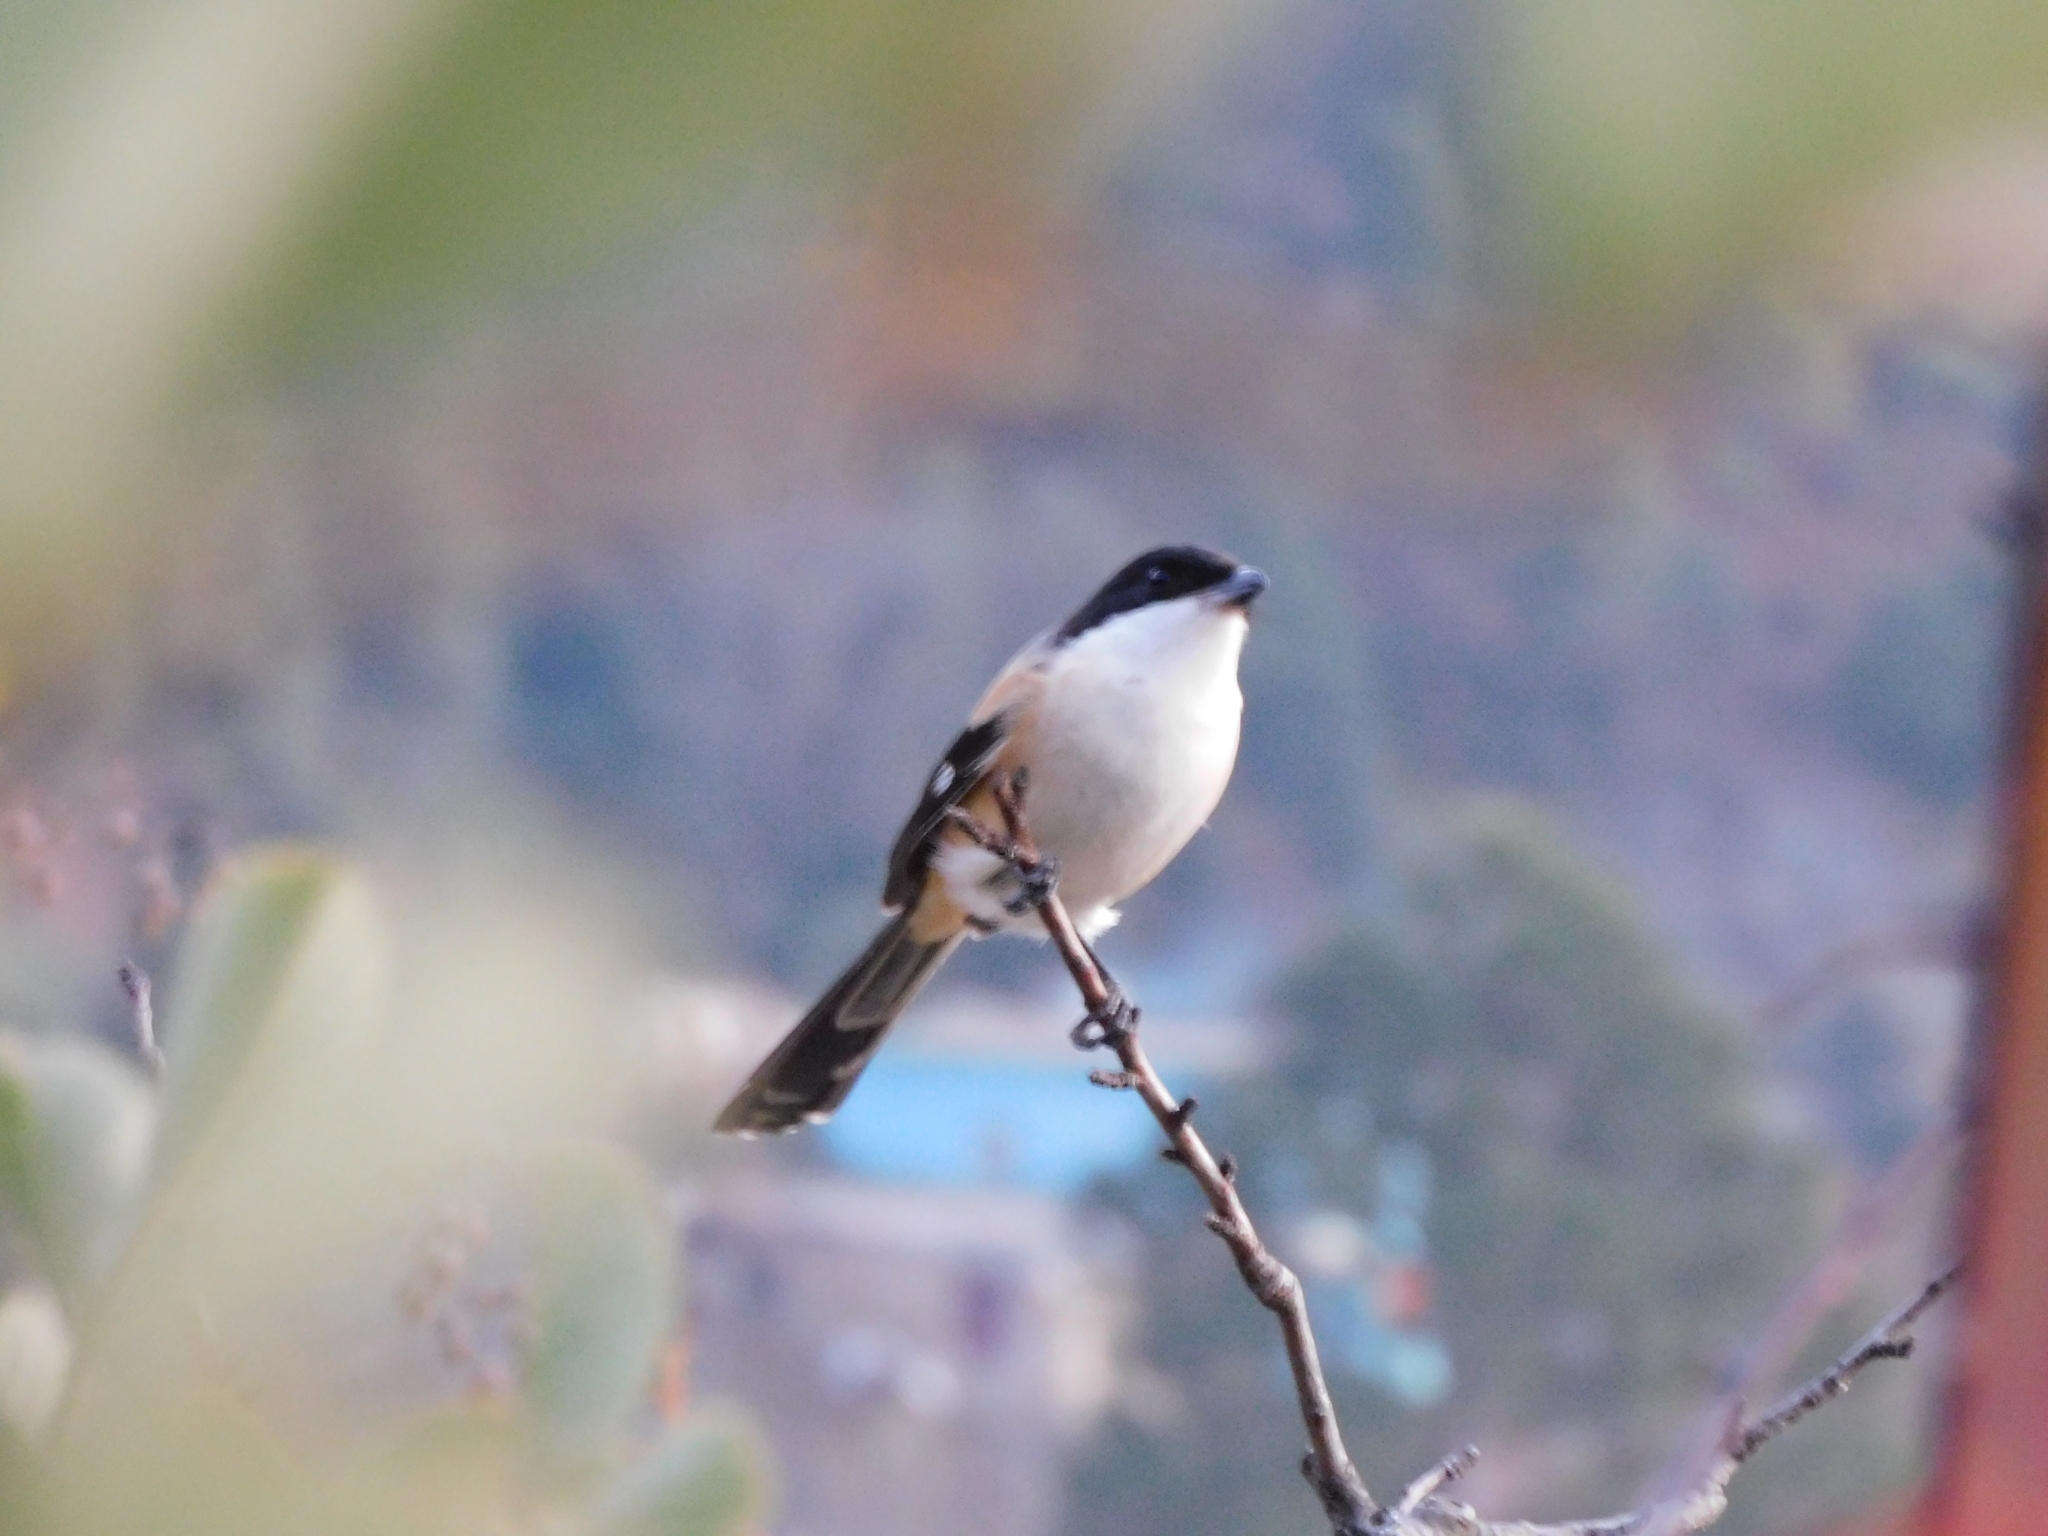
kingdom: Animalia
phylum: Chordata
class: Aves
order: Passeriformes
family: Laniidae
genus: Lanius
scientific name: Lanius schach
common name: Long-tailed shrike
